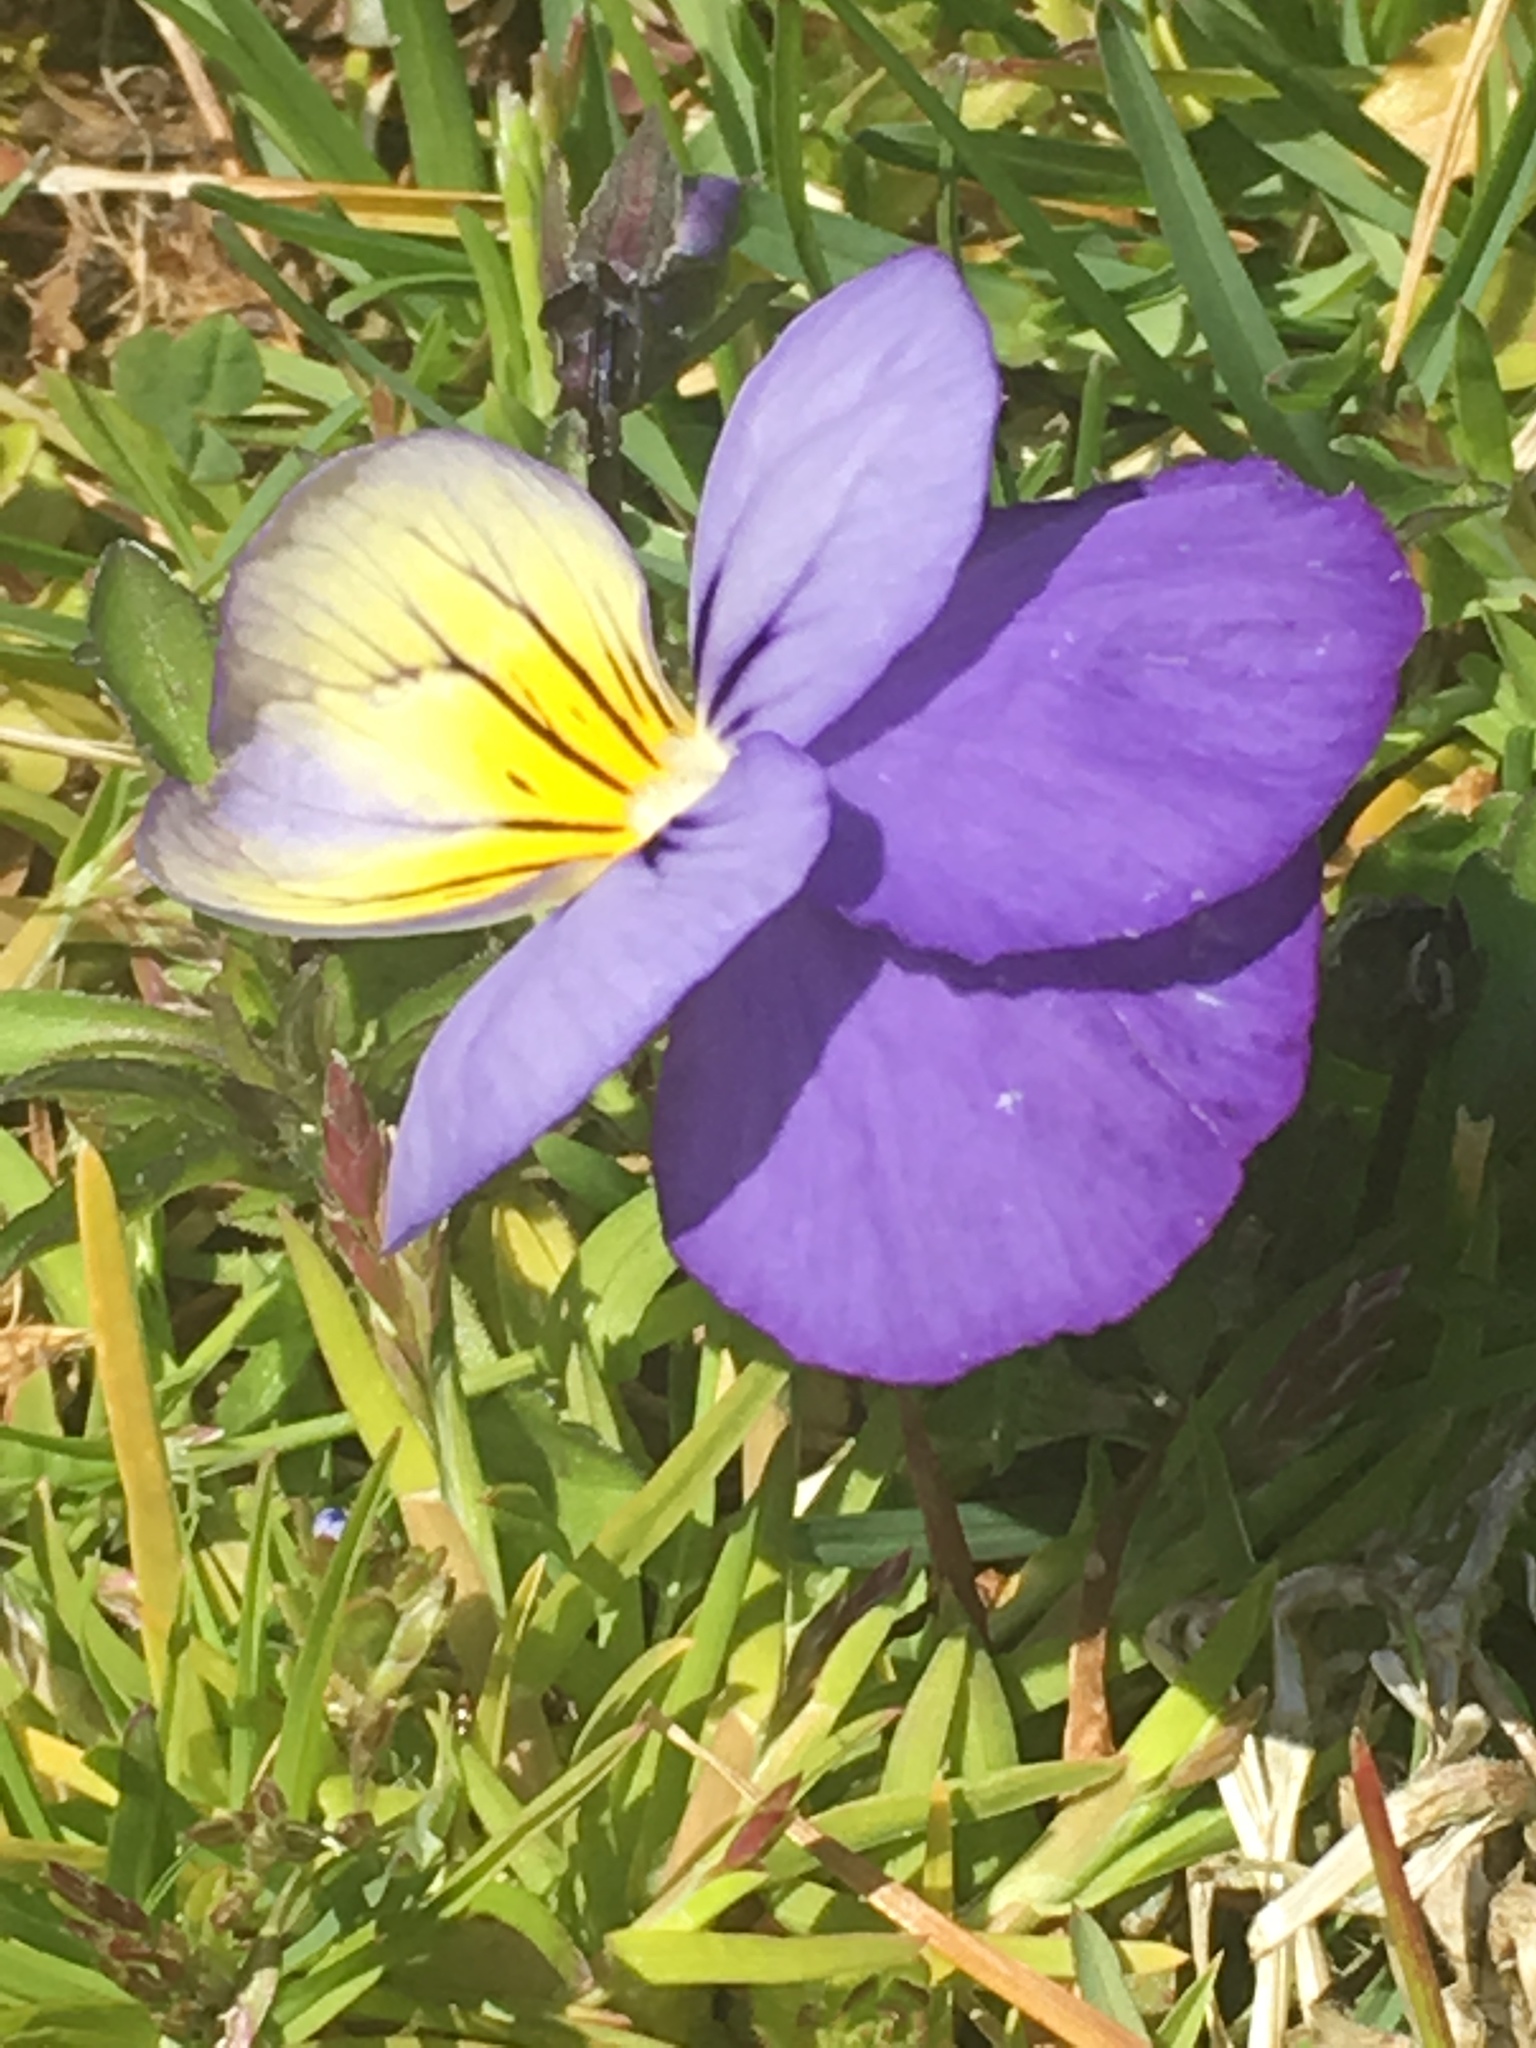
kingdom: Plantae
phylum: Tracheophyta
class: Magnoliopsida
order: Malpighiales
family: Violaceae
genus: Viola
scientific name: Viola wittrockiana
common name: Garden pansy
